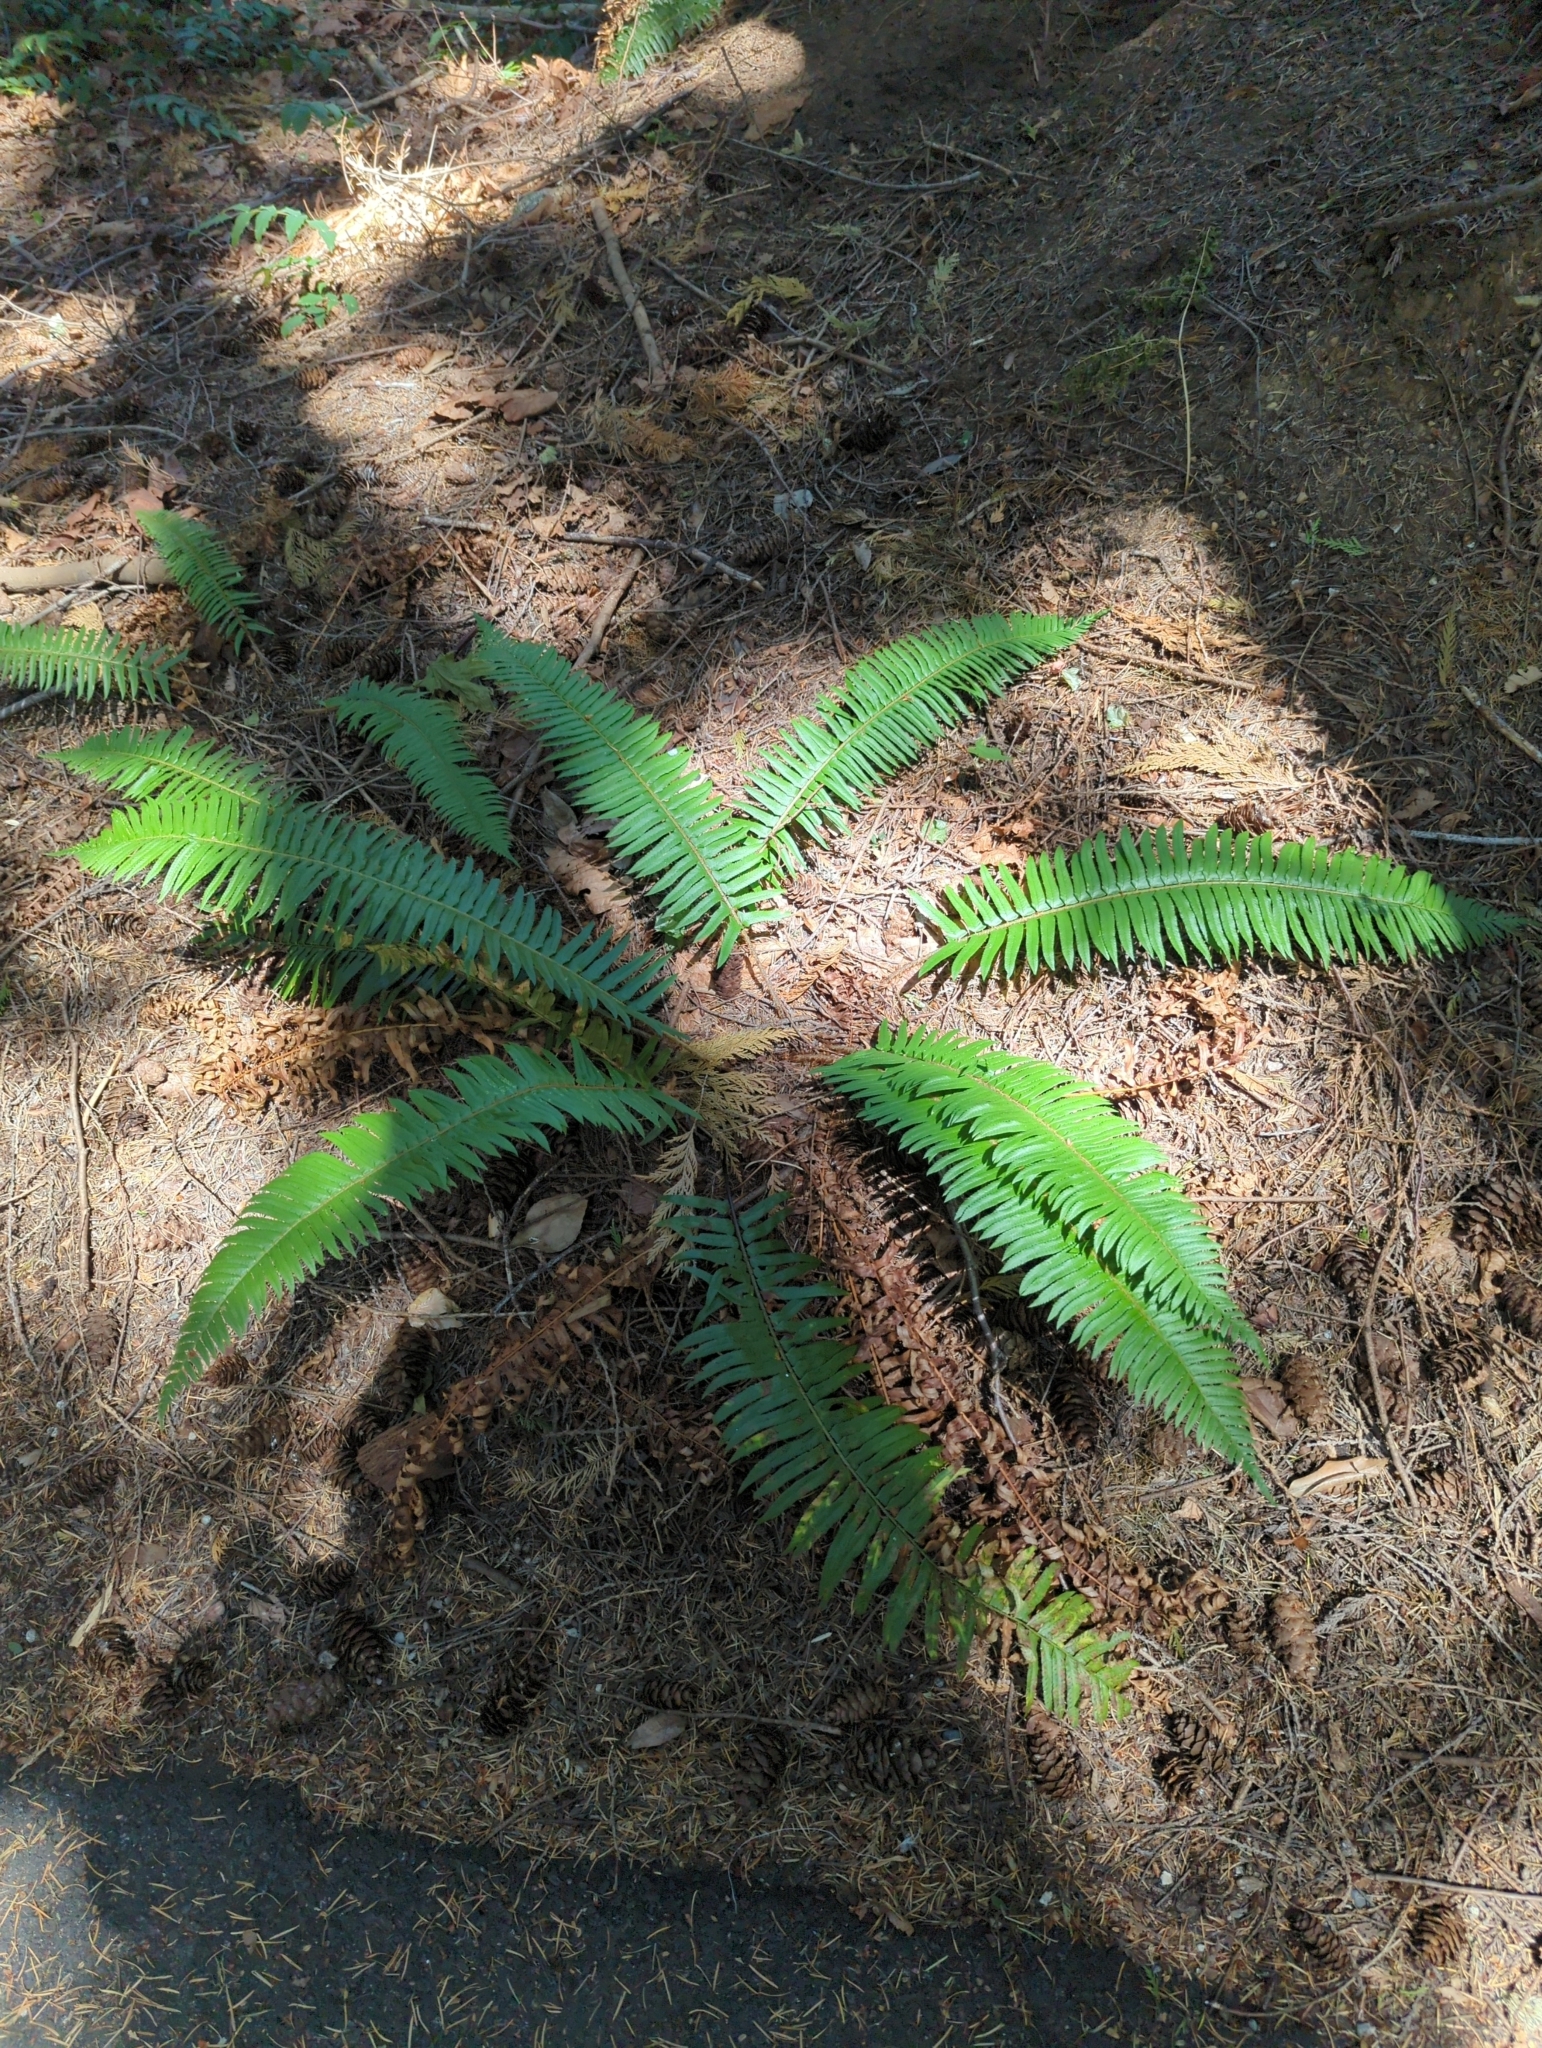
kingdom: Plantae
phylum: Tracheophyta
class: Polypodiopsida
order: Polypodiales
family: Dryopteridaceae
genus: Polystichum
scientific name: Polystichum munitum
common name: Western sword-fern
